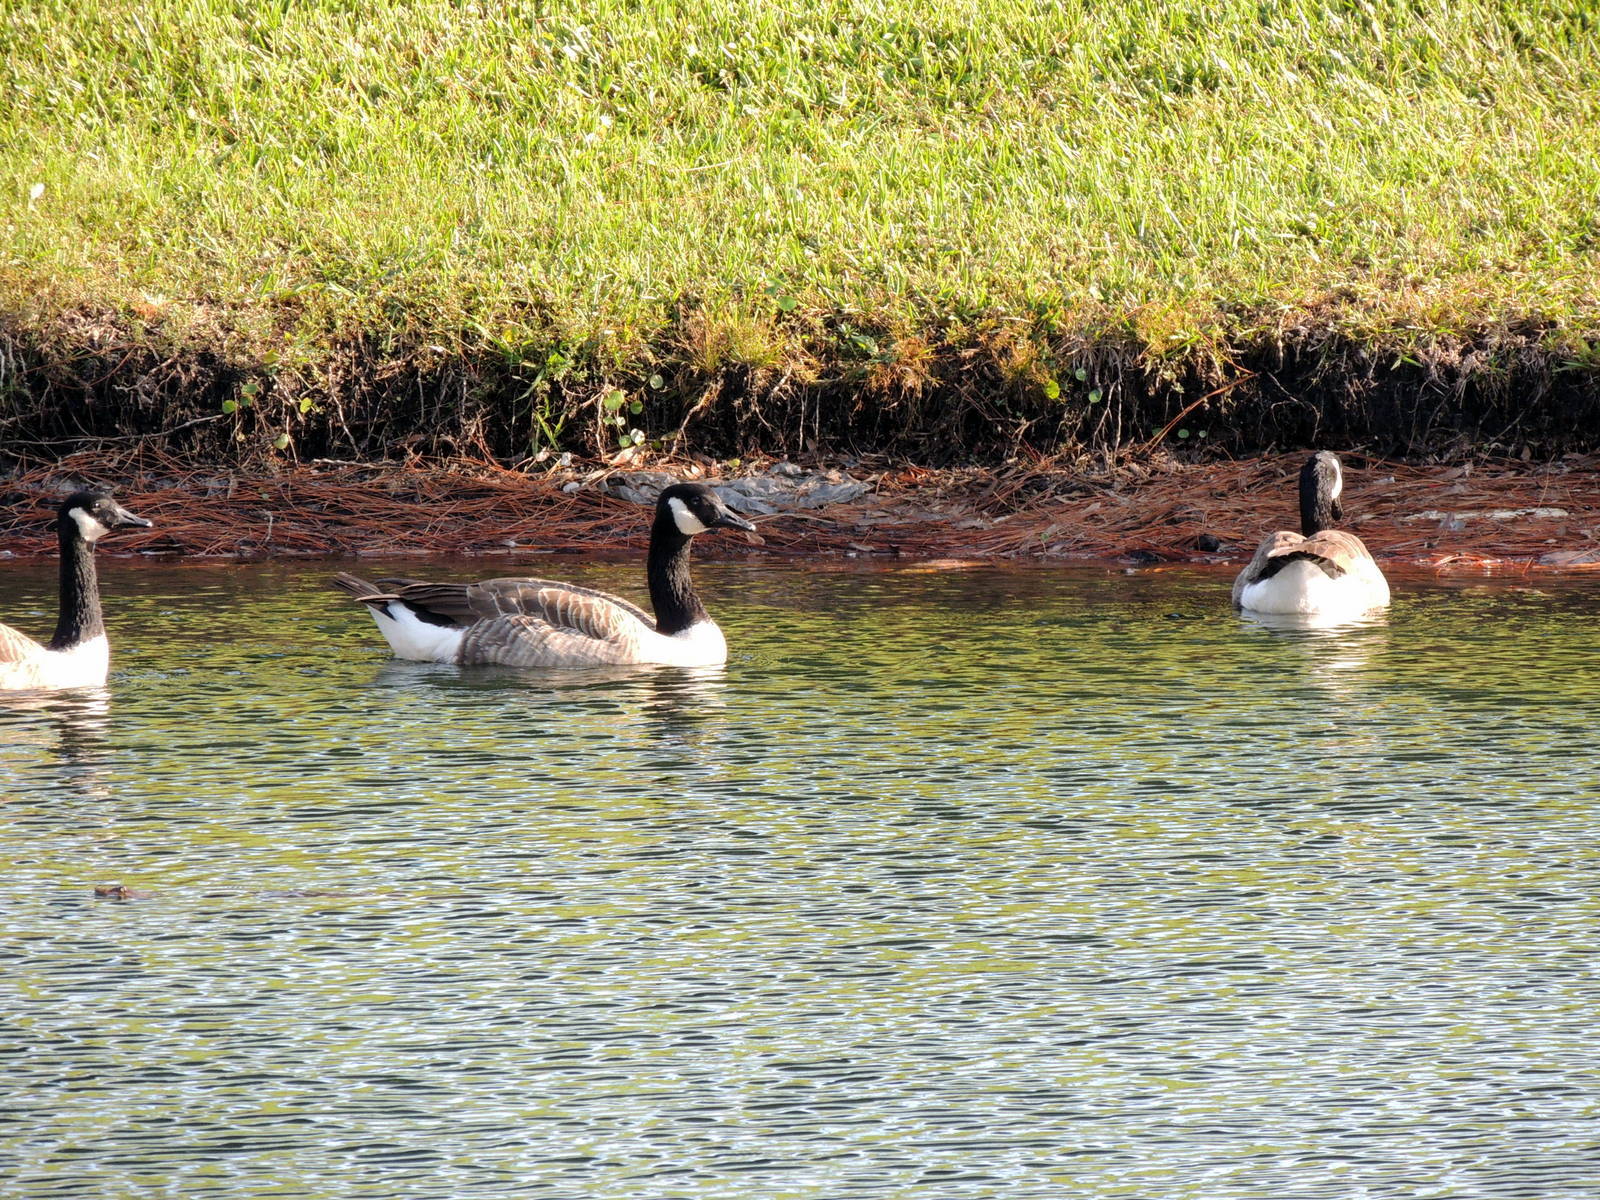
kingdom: Animalia
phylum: Chordata
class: Aves
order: Anseriformes
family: Anatidae
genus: Branta
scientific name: Branta canadensis
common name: Canada goose
